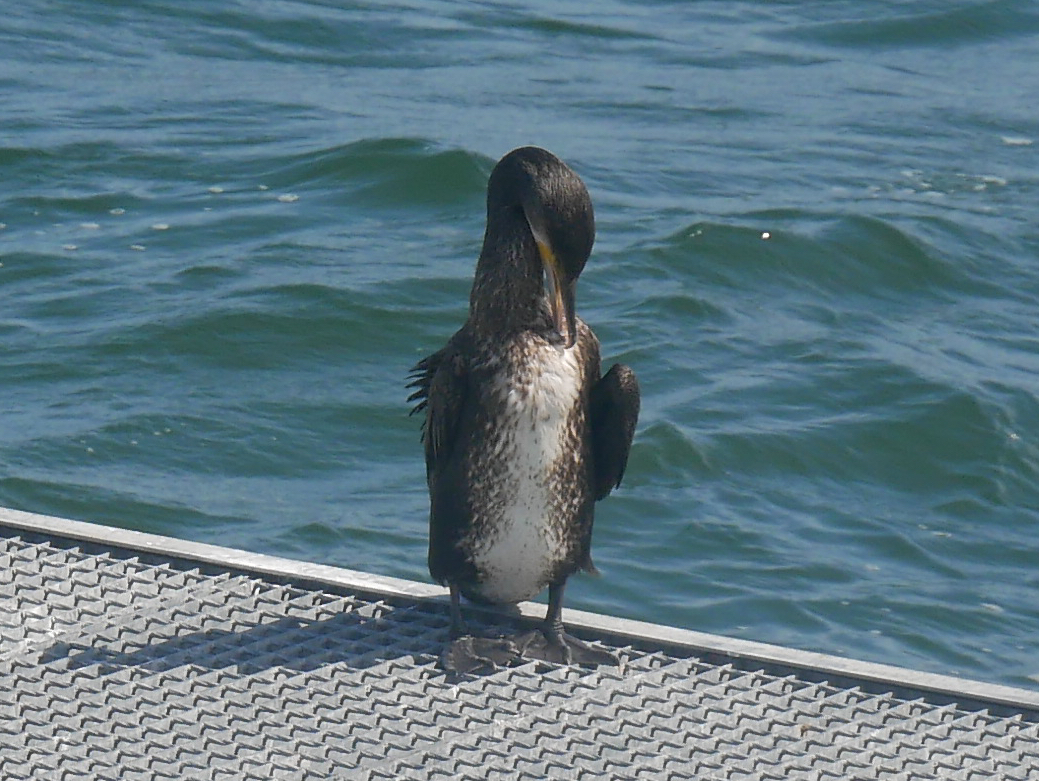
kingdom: Animalia
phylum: Chordata
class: Aves
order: Suliformes
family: Phalacrocoracidae
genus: Phalacrocorax
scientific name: Phalacrocorax carbo
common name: Great cormorant
